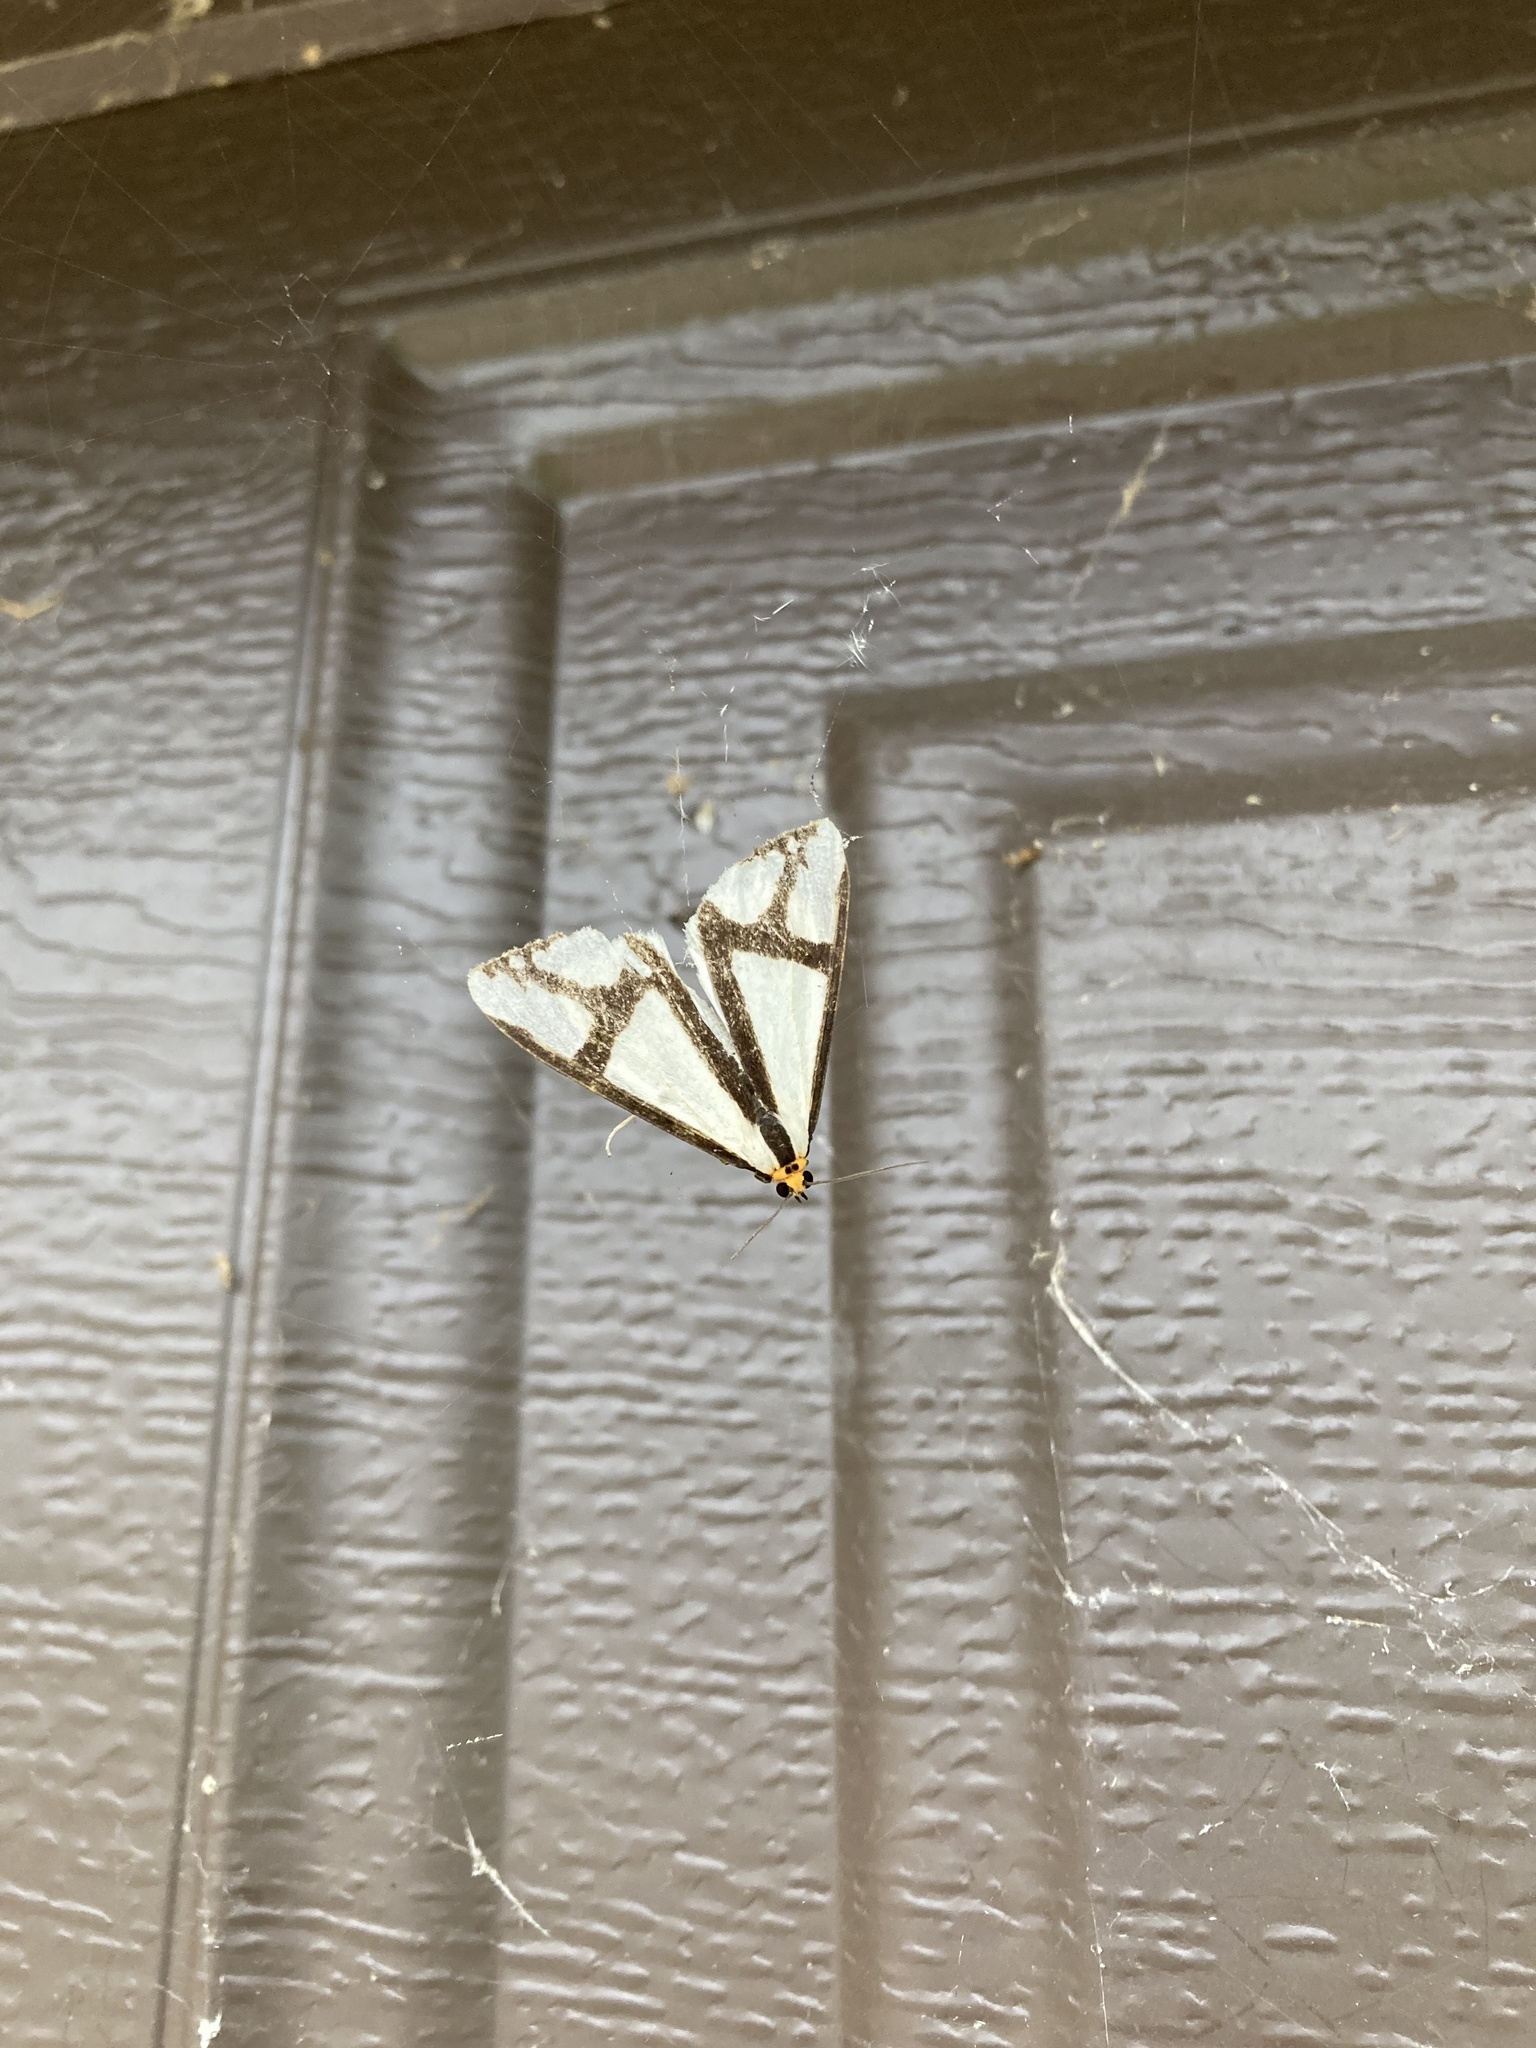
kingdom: Animalia
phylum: Arthropoda
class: Insecta
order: Lepidoptera
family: Erebidae
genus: Haploa
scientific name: Haploa contigua
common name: Neighbor moth
